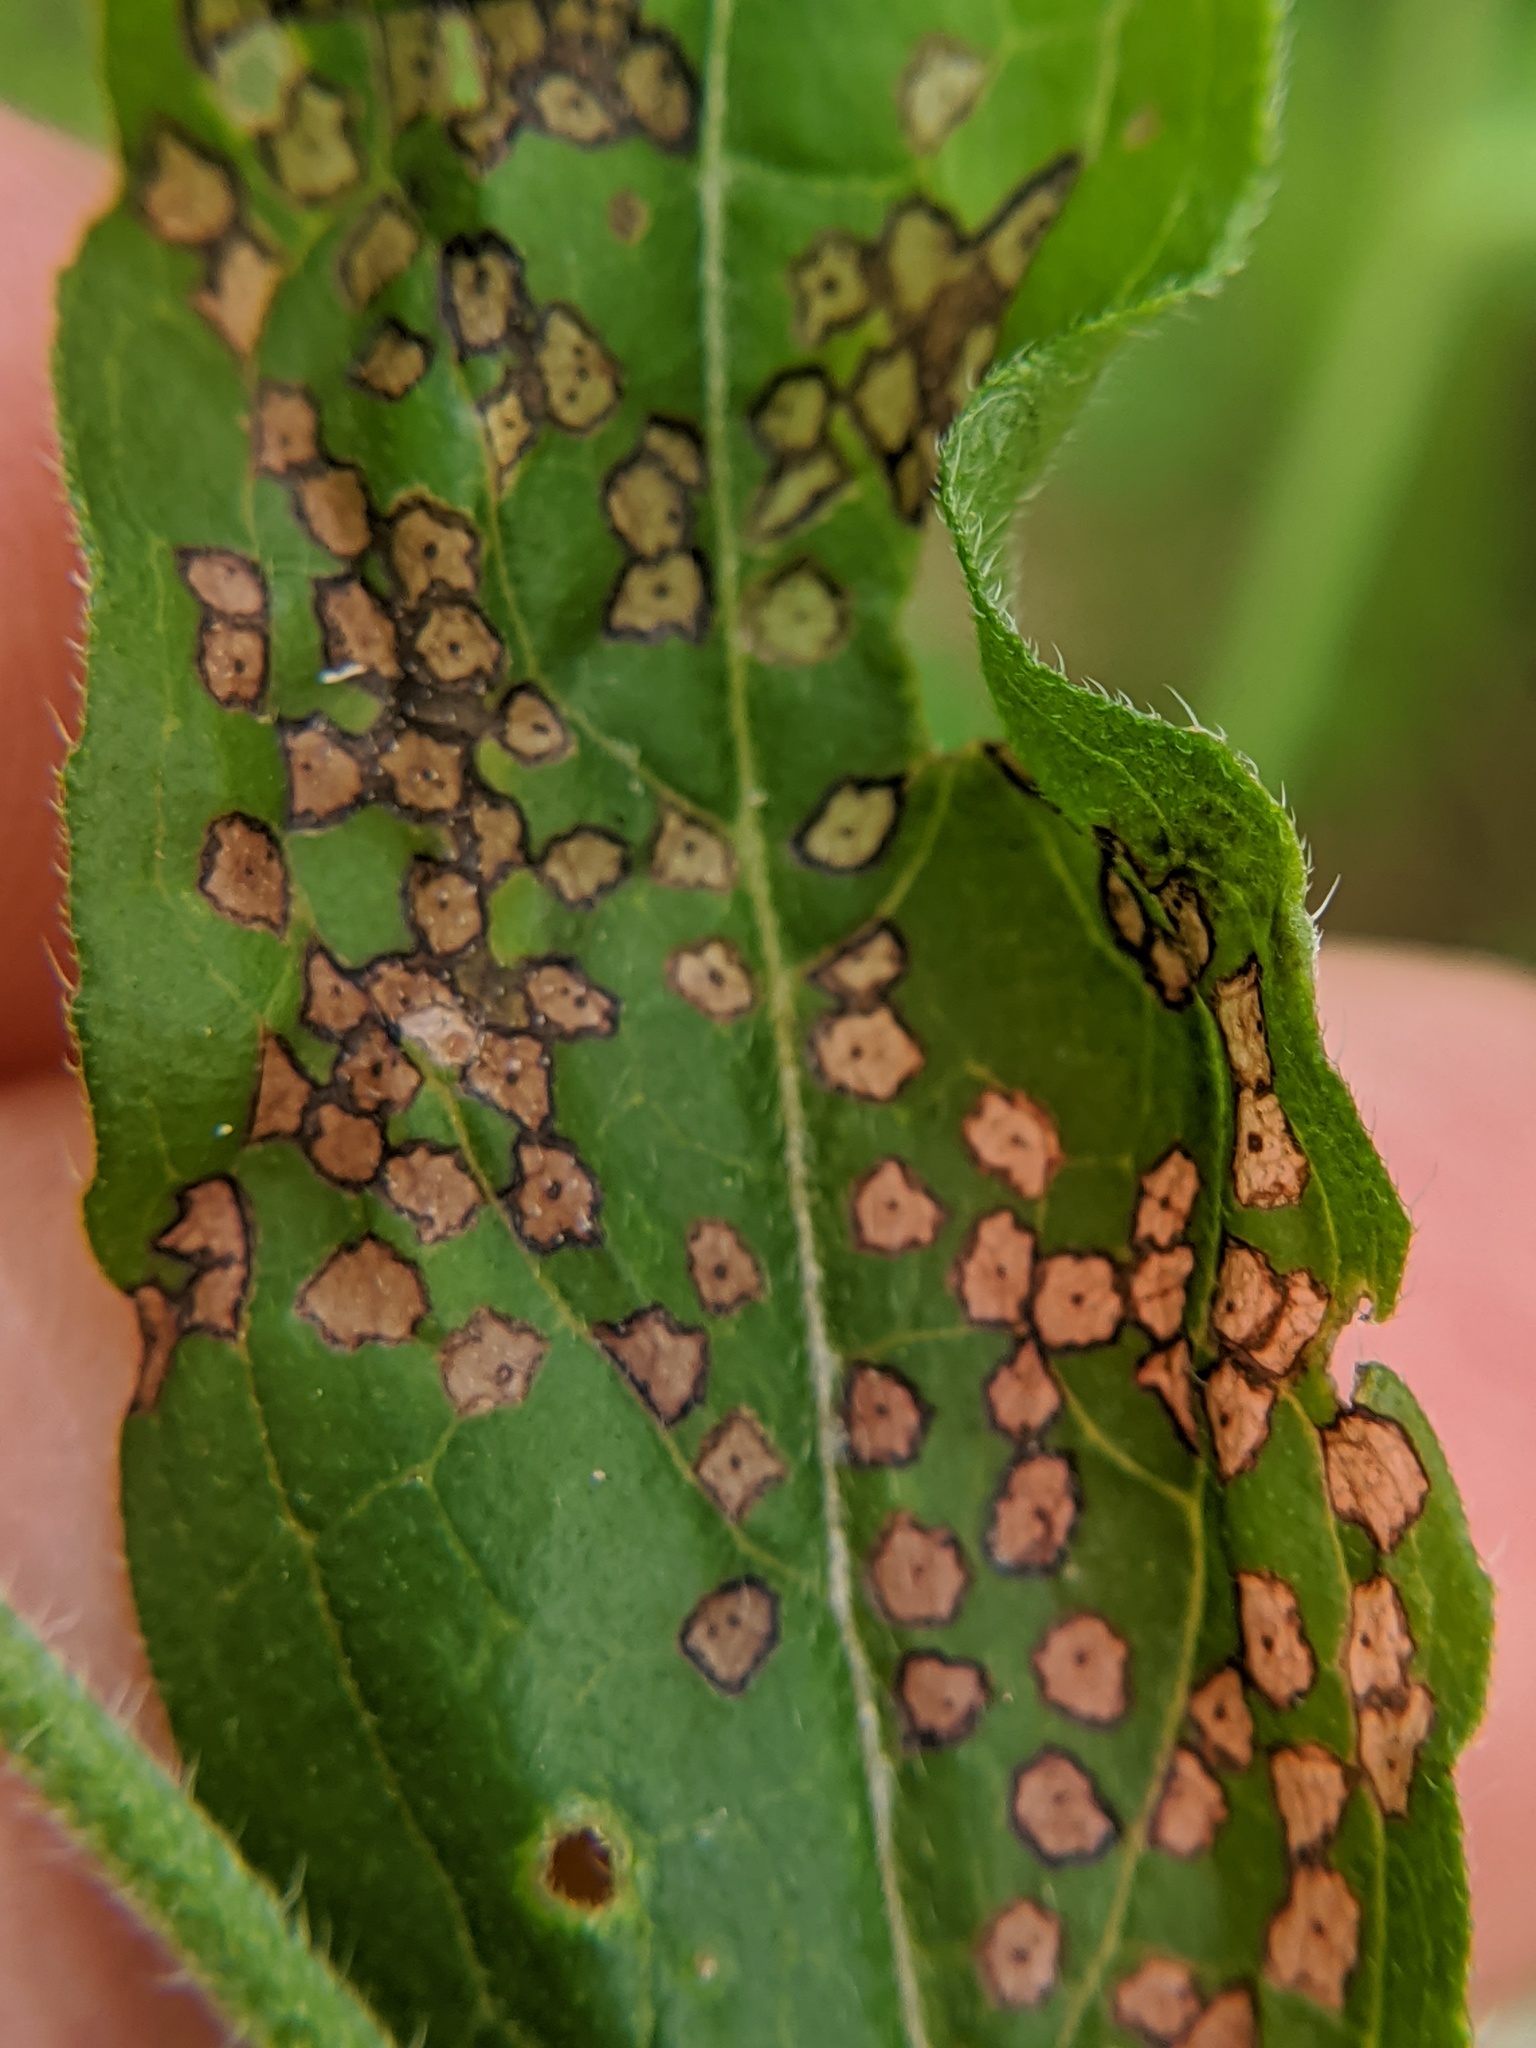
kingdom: Animalia
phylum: Arthropoda
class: Insecta
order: Hemiptera
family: Miridae
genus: Poecilocapsus
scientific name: Poecilocapsus lineatus
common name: Four-lined plant bug
